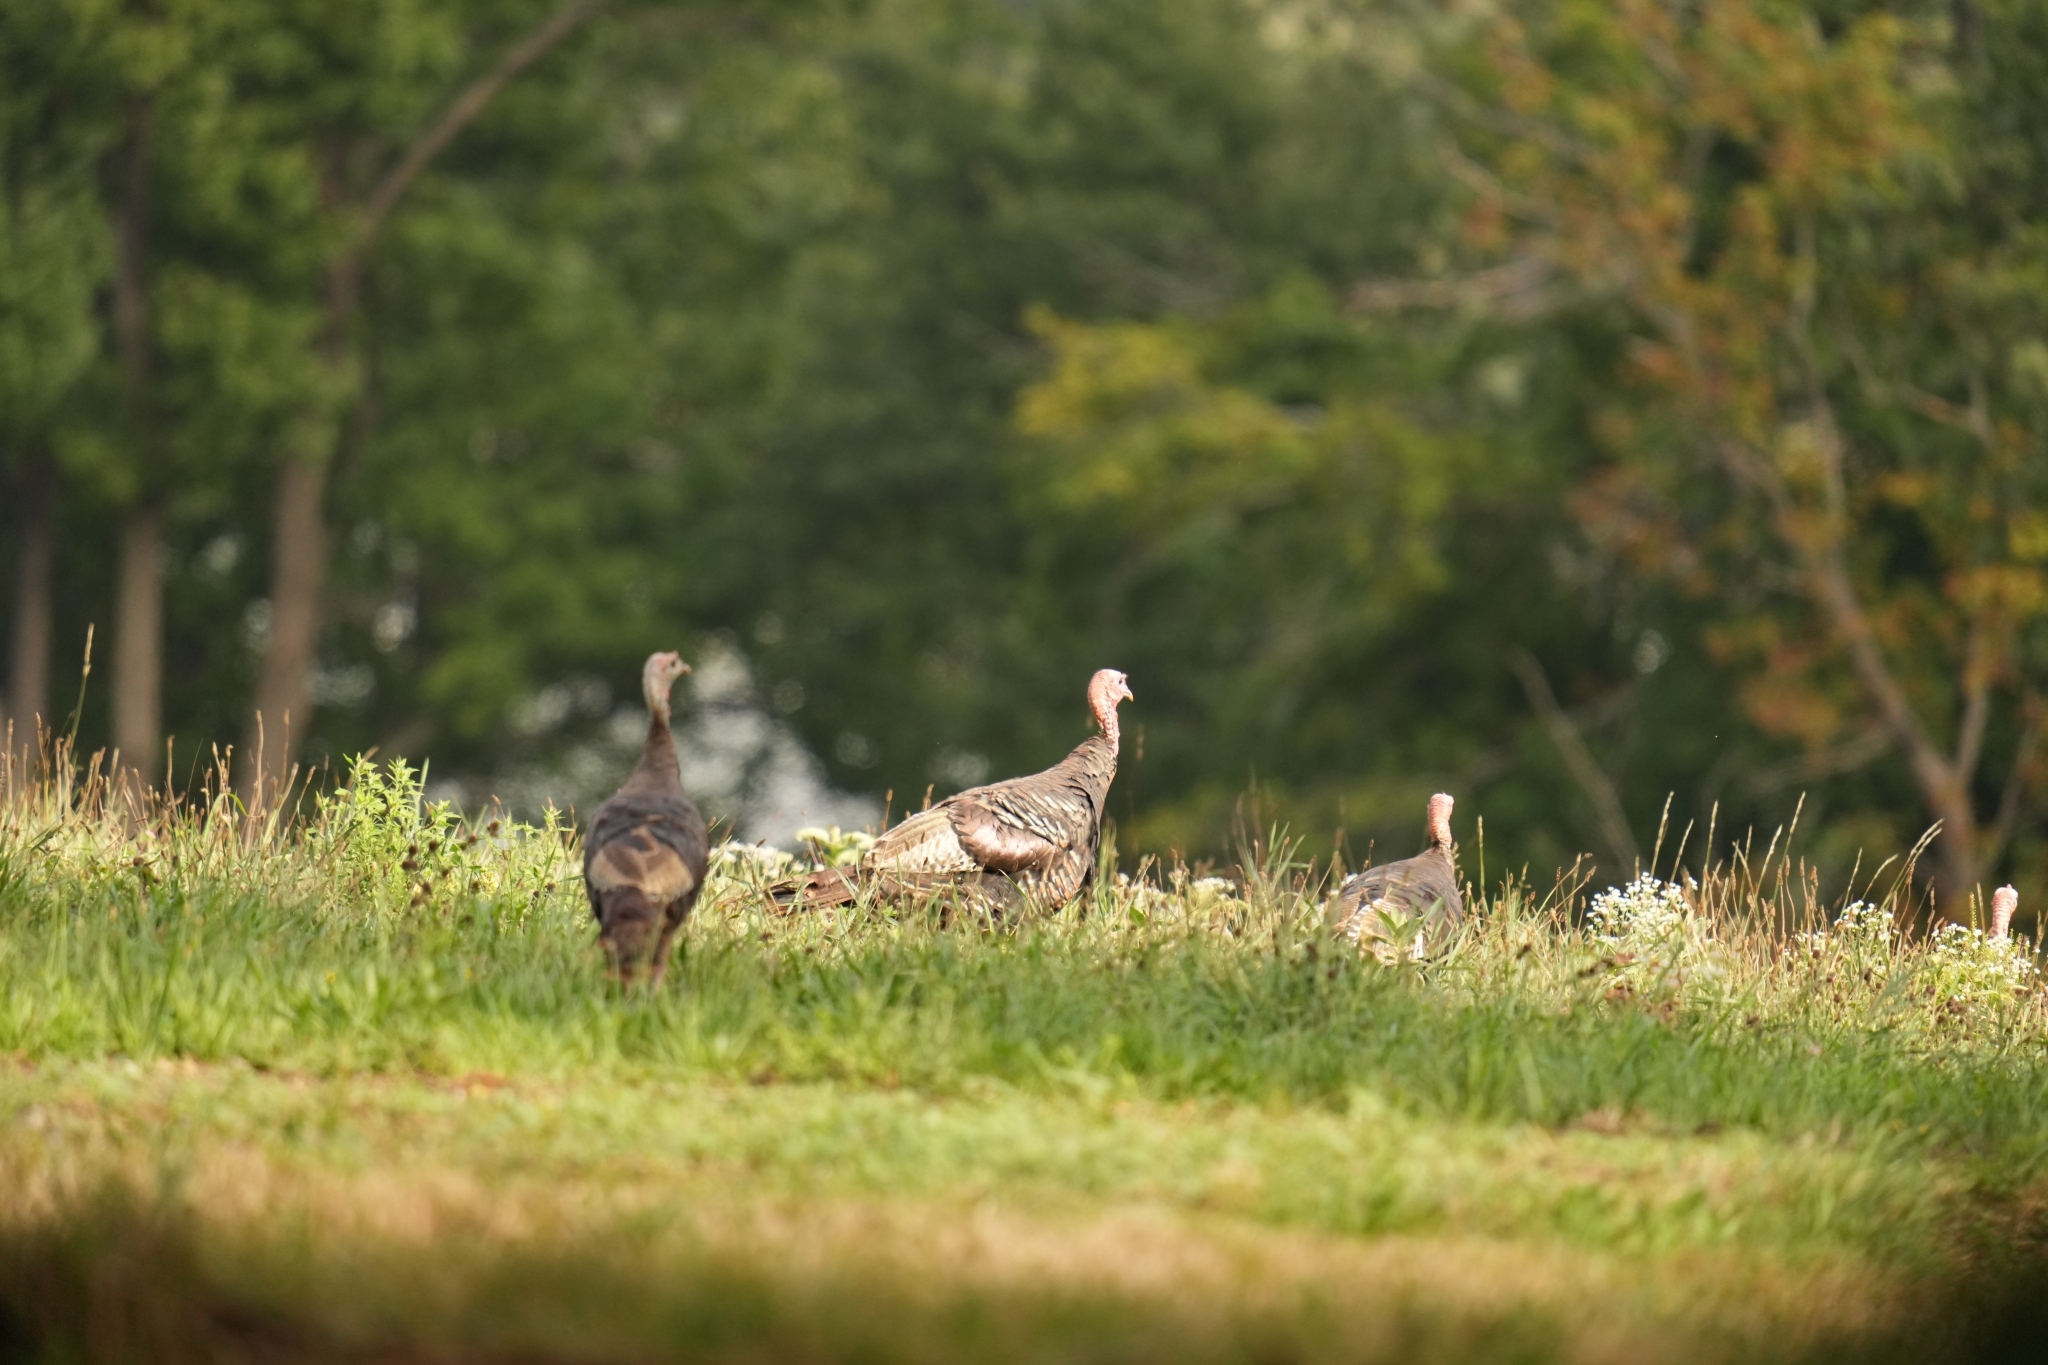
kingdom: Animalia
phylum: Chordata
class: Aves
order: Galliformes
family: Phasianidae
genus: Meleagris
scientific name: Meleagris gallopavo
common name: Wild turkey
